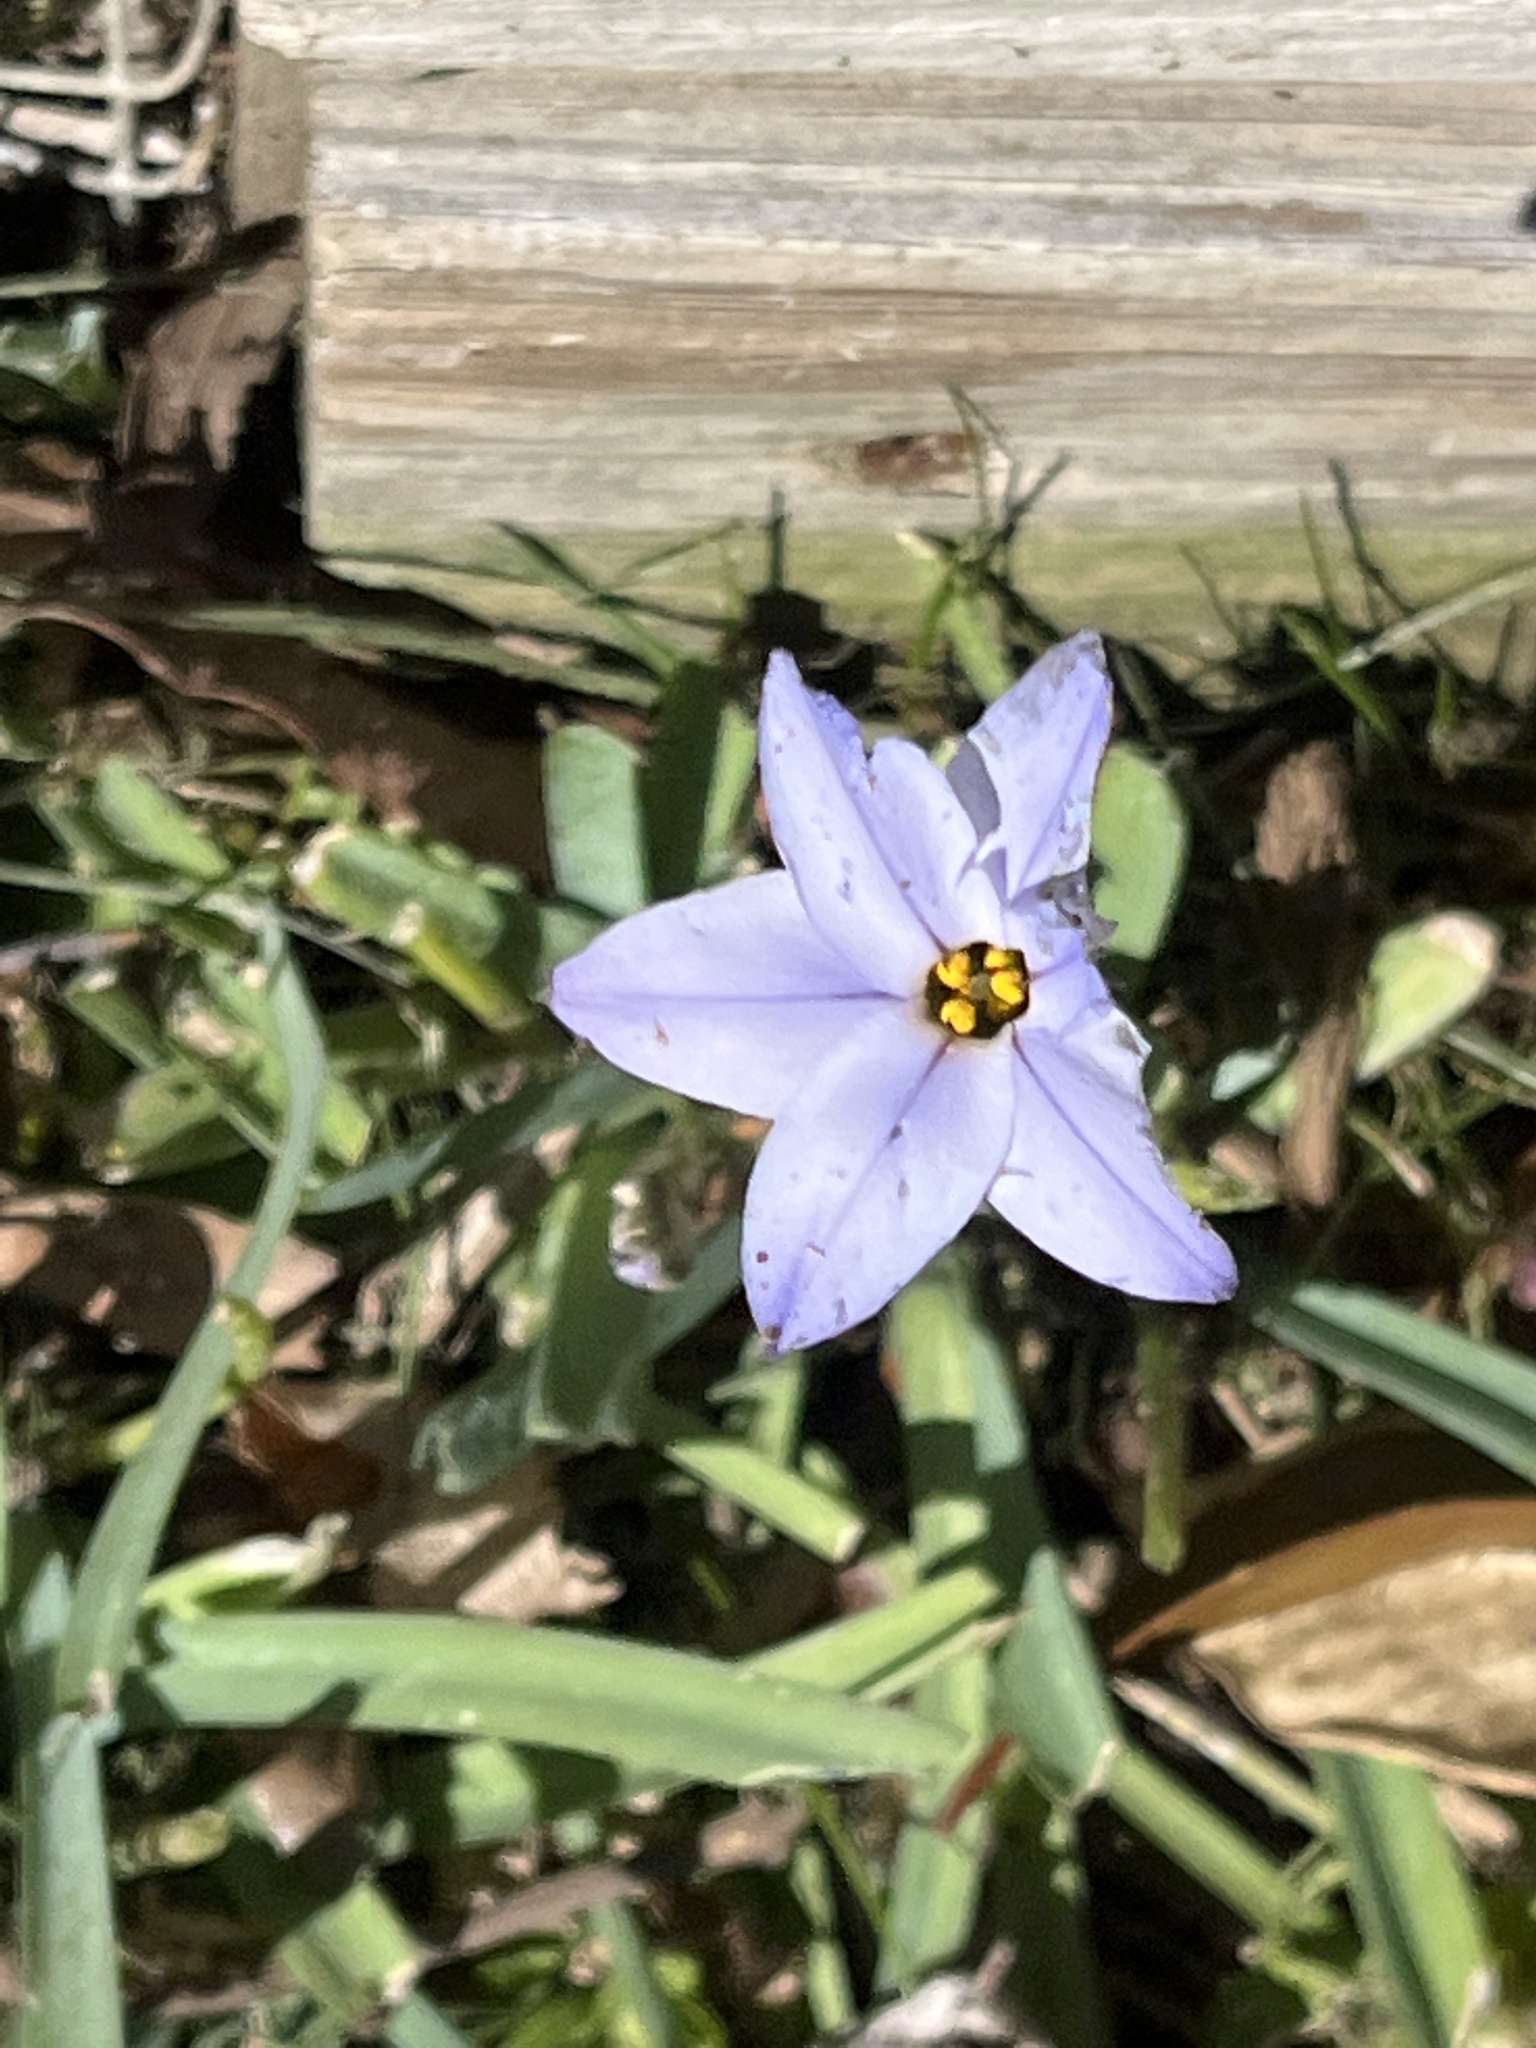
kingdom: Plantae
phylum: Tracheophyta
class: Liliopsida
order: Asparagales
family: Amaryllidaceae
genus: Ipheion
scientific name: Ipheion uniflorum
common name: Spring starflower
